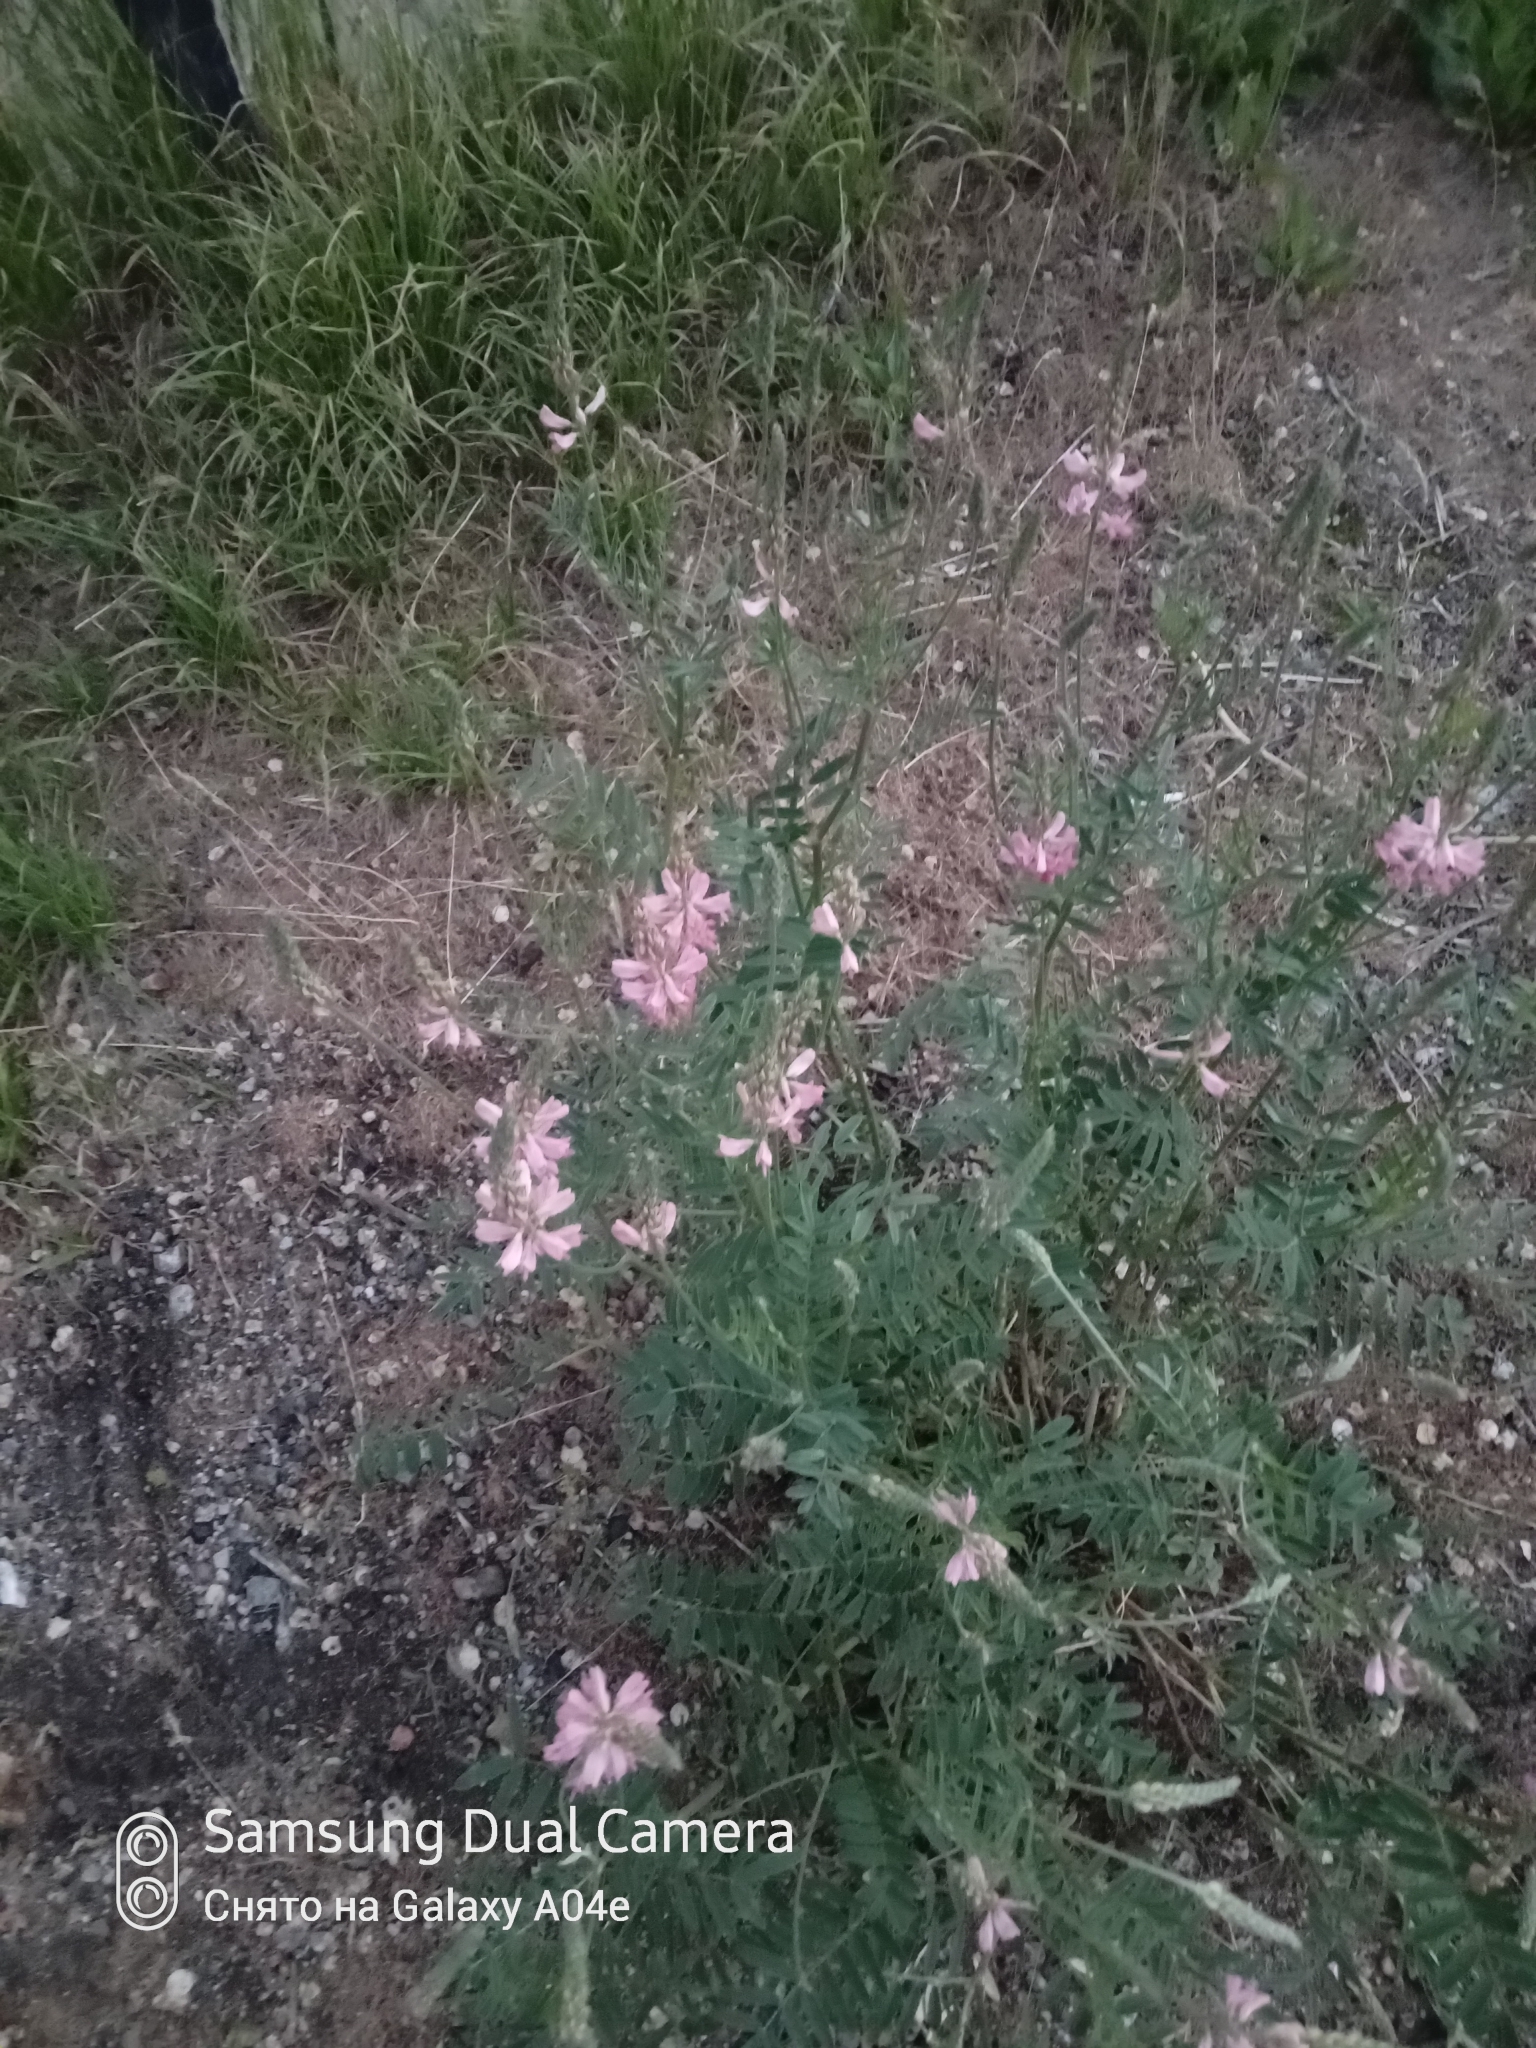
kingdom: Plantae
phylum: Tracheophyta
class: Magnoliopsida
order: Fabales
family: Fabaceae
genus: Onobrychis
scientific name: Onobrychis arenaria
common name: Sand esparcet
